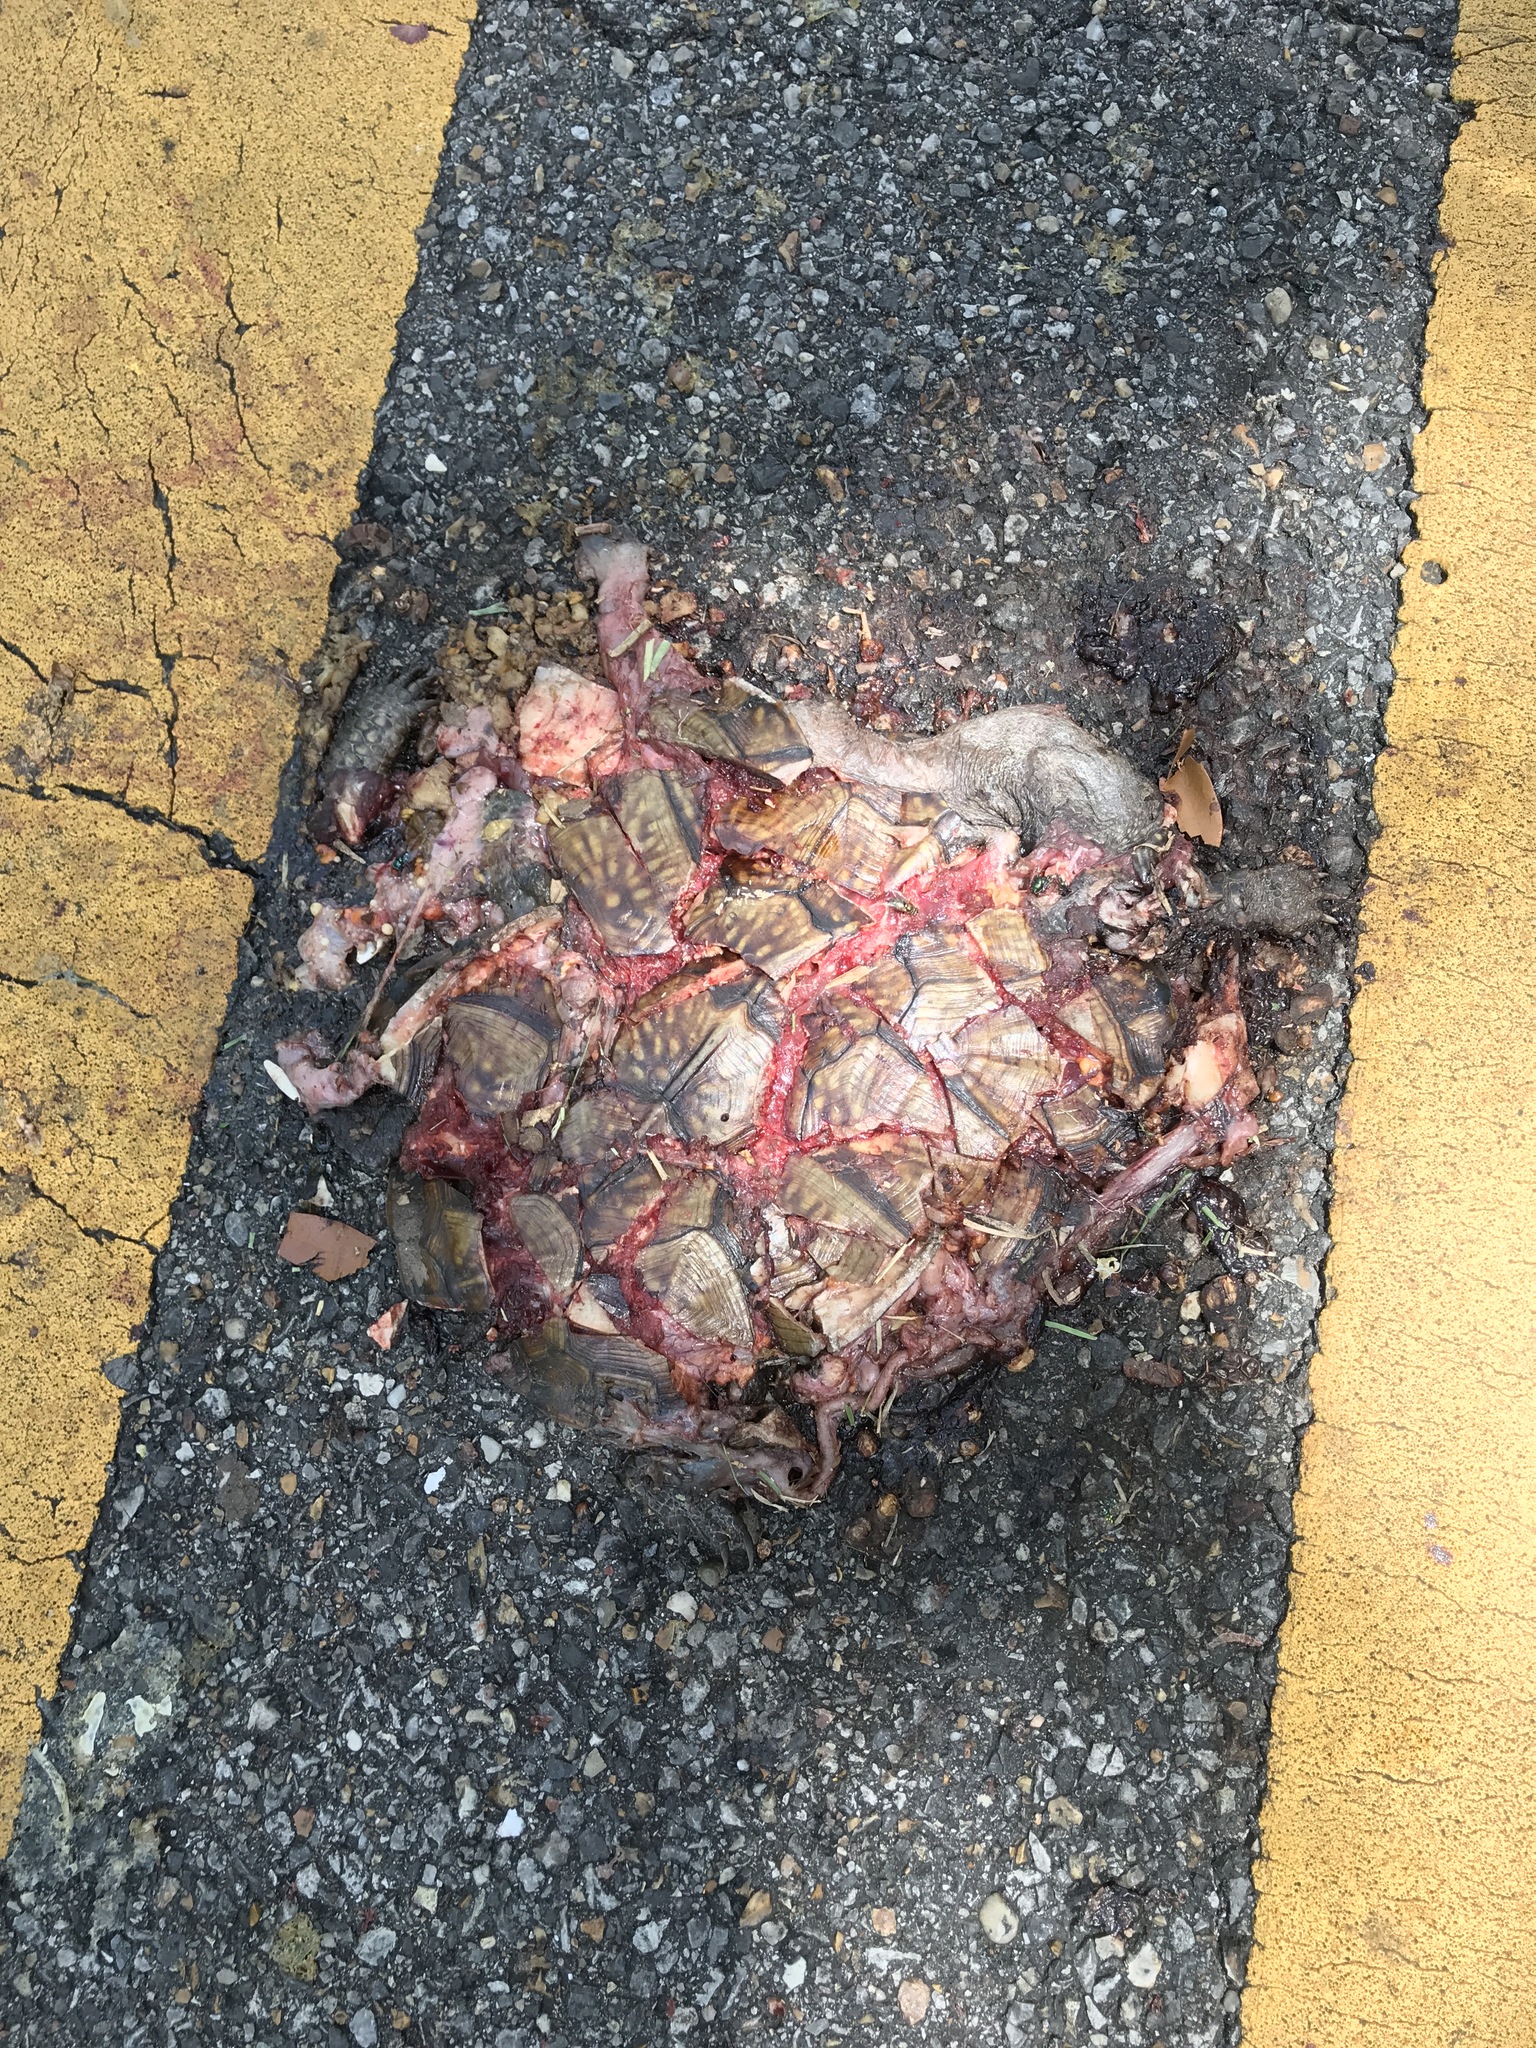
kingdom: Animalia
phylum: Chordata
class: Testudines
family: Emydidae
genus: Terrapene
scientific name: Terrapene carolina
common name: Common box turtle
